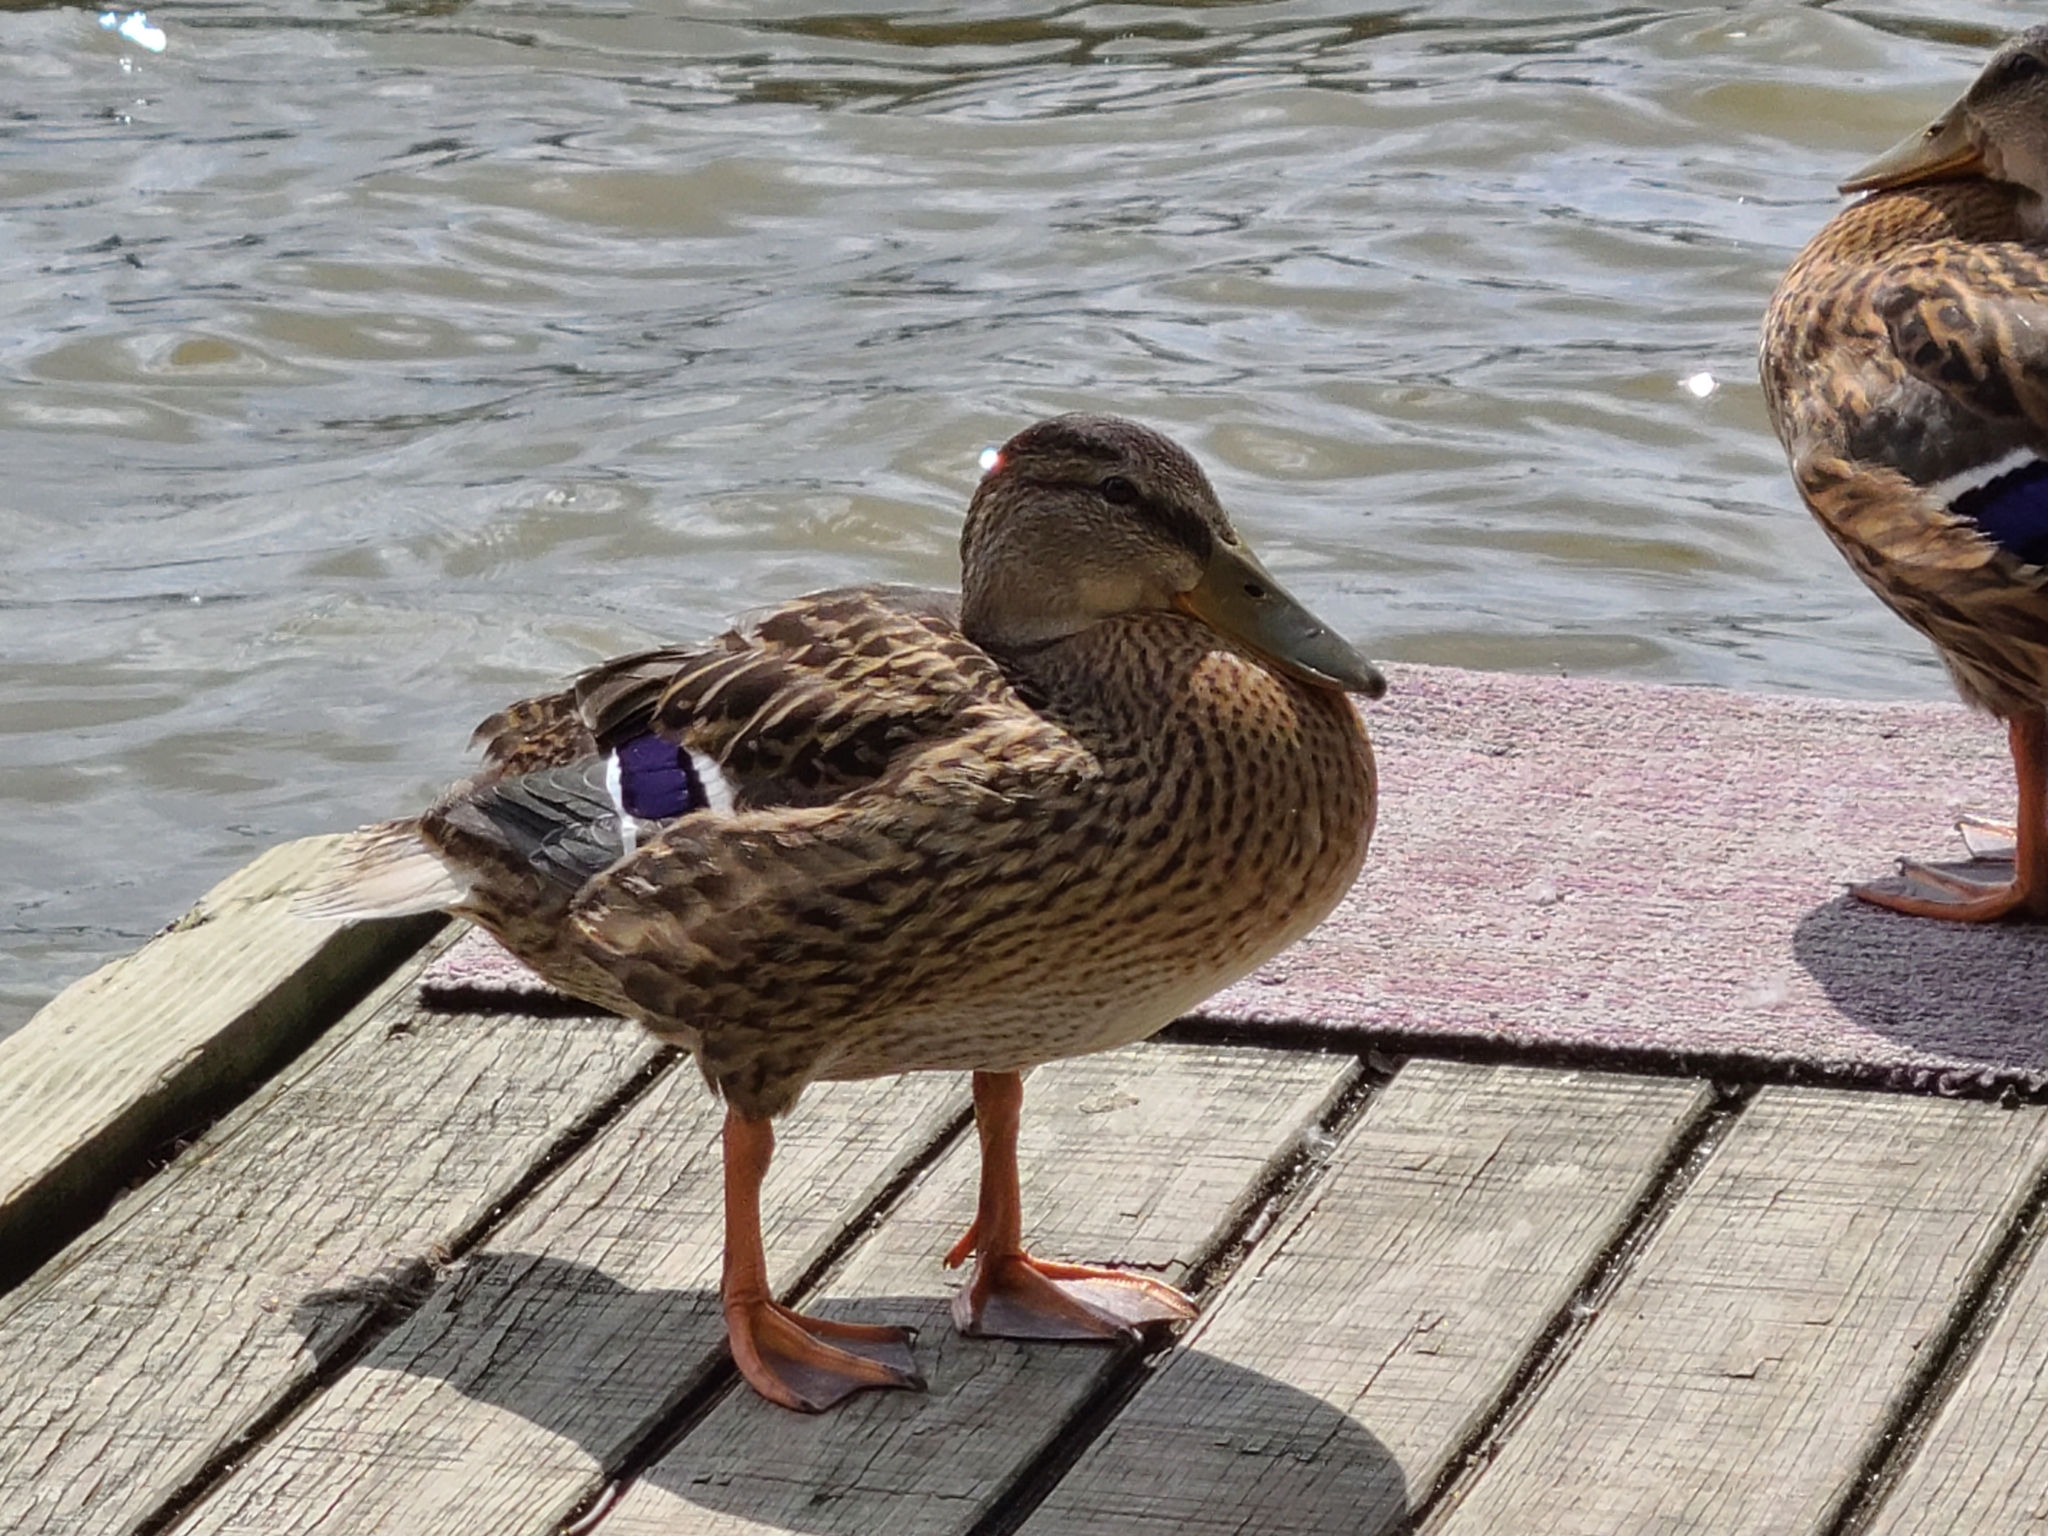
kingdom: Animalia
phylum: Chordata
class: Aves
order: Anseriformes
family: Anatidae
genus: Anas
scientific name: Anas platyrhynchos
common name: Mallard
